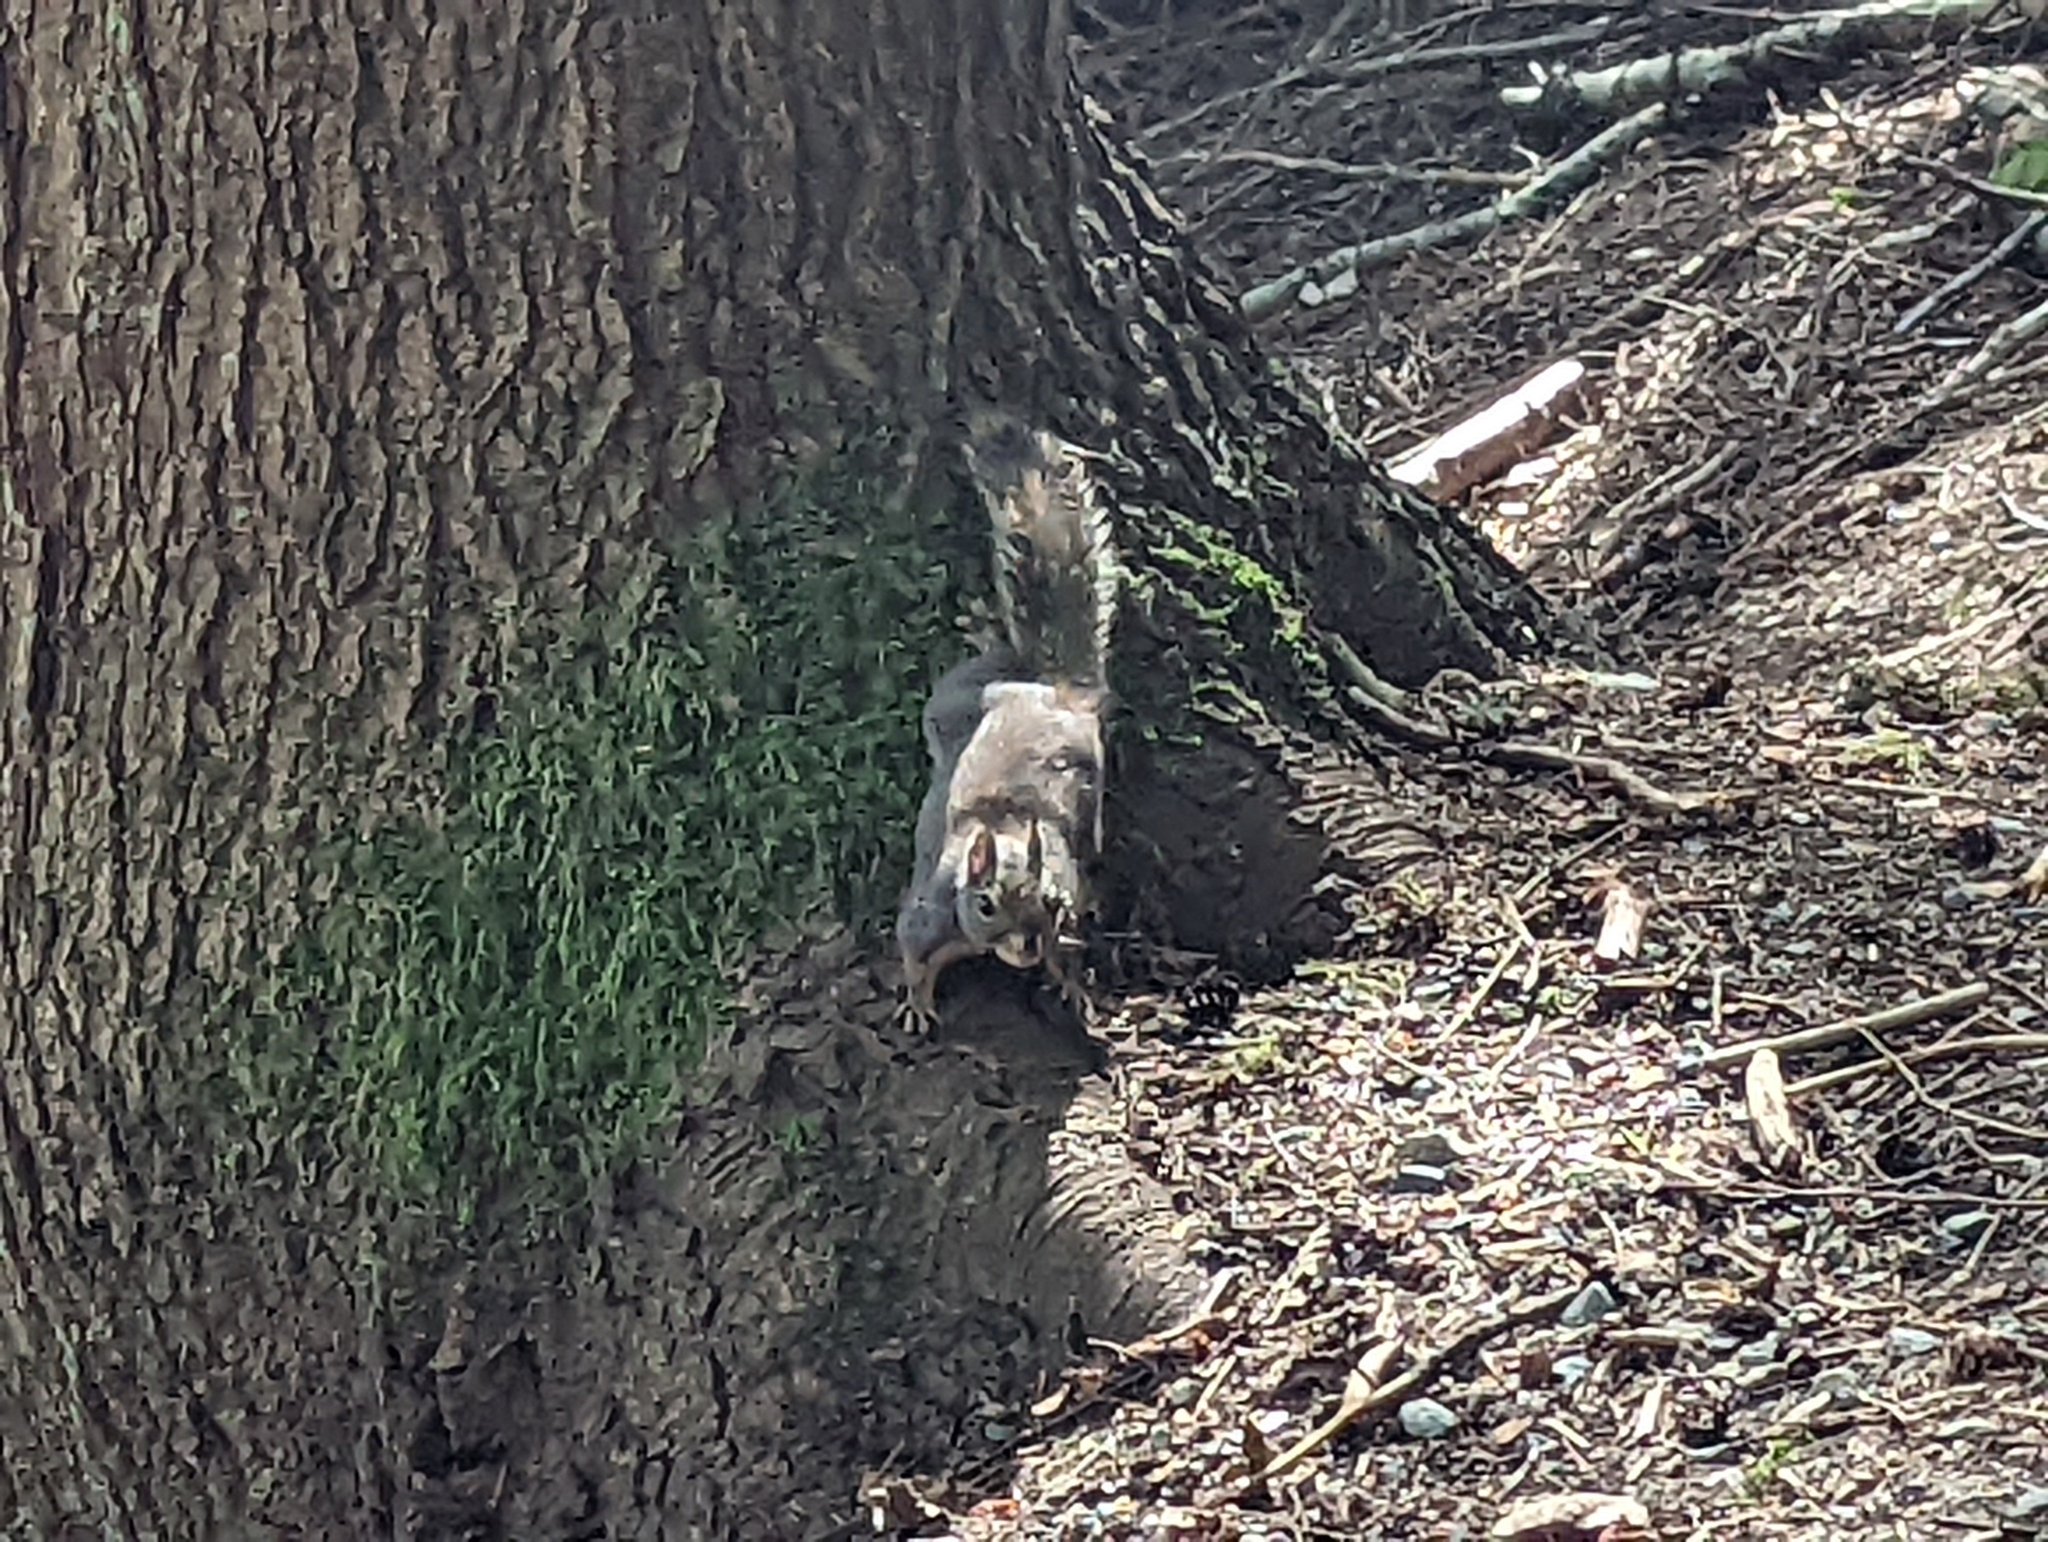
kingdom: Animalia
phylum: Chordata
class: Mammalia
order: Rodentia
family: Sciuridae
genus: Tamiasciurus
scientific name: Tamiasciurus douglasii
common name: Douglas's squirrel
